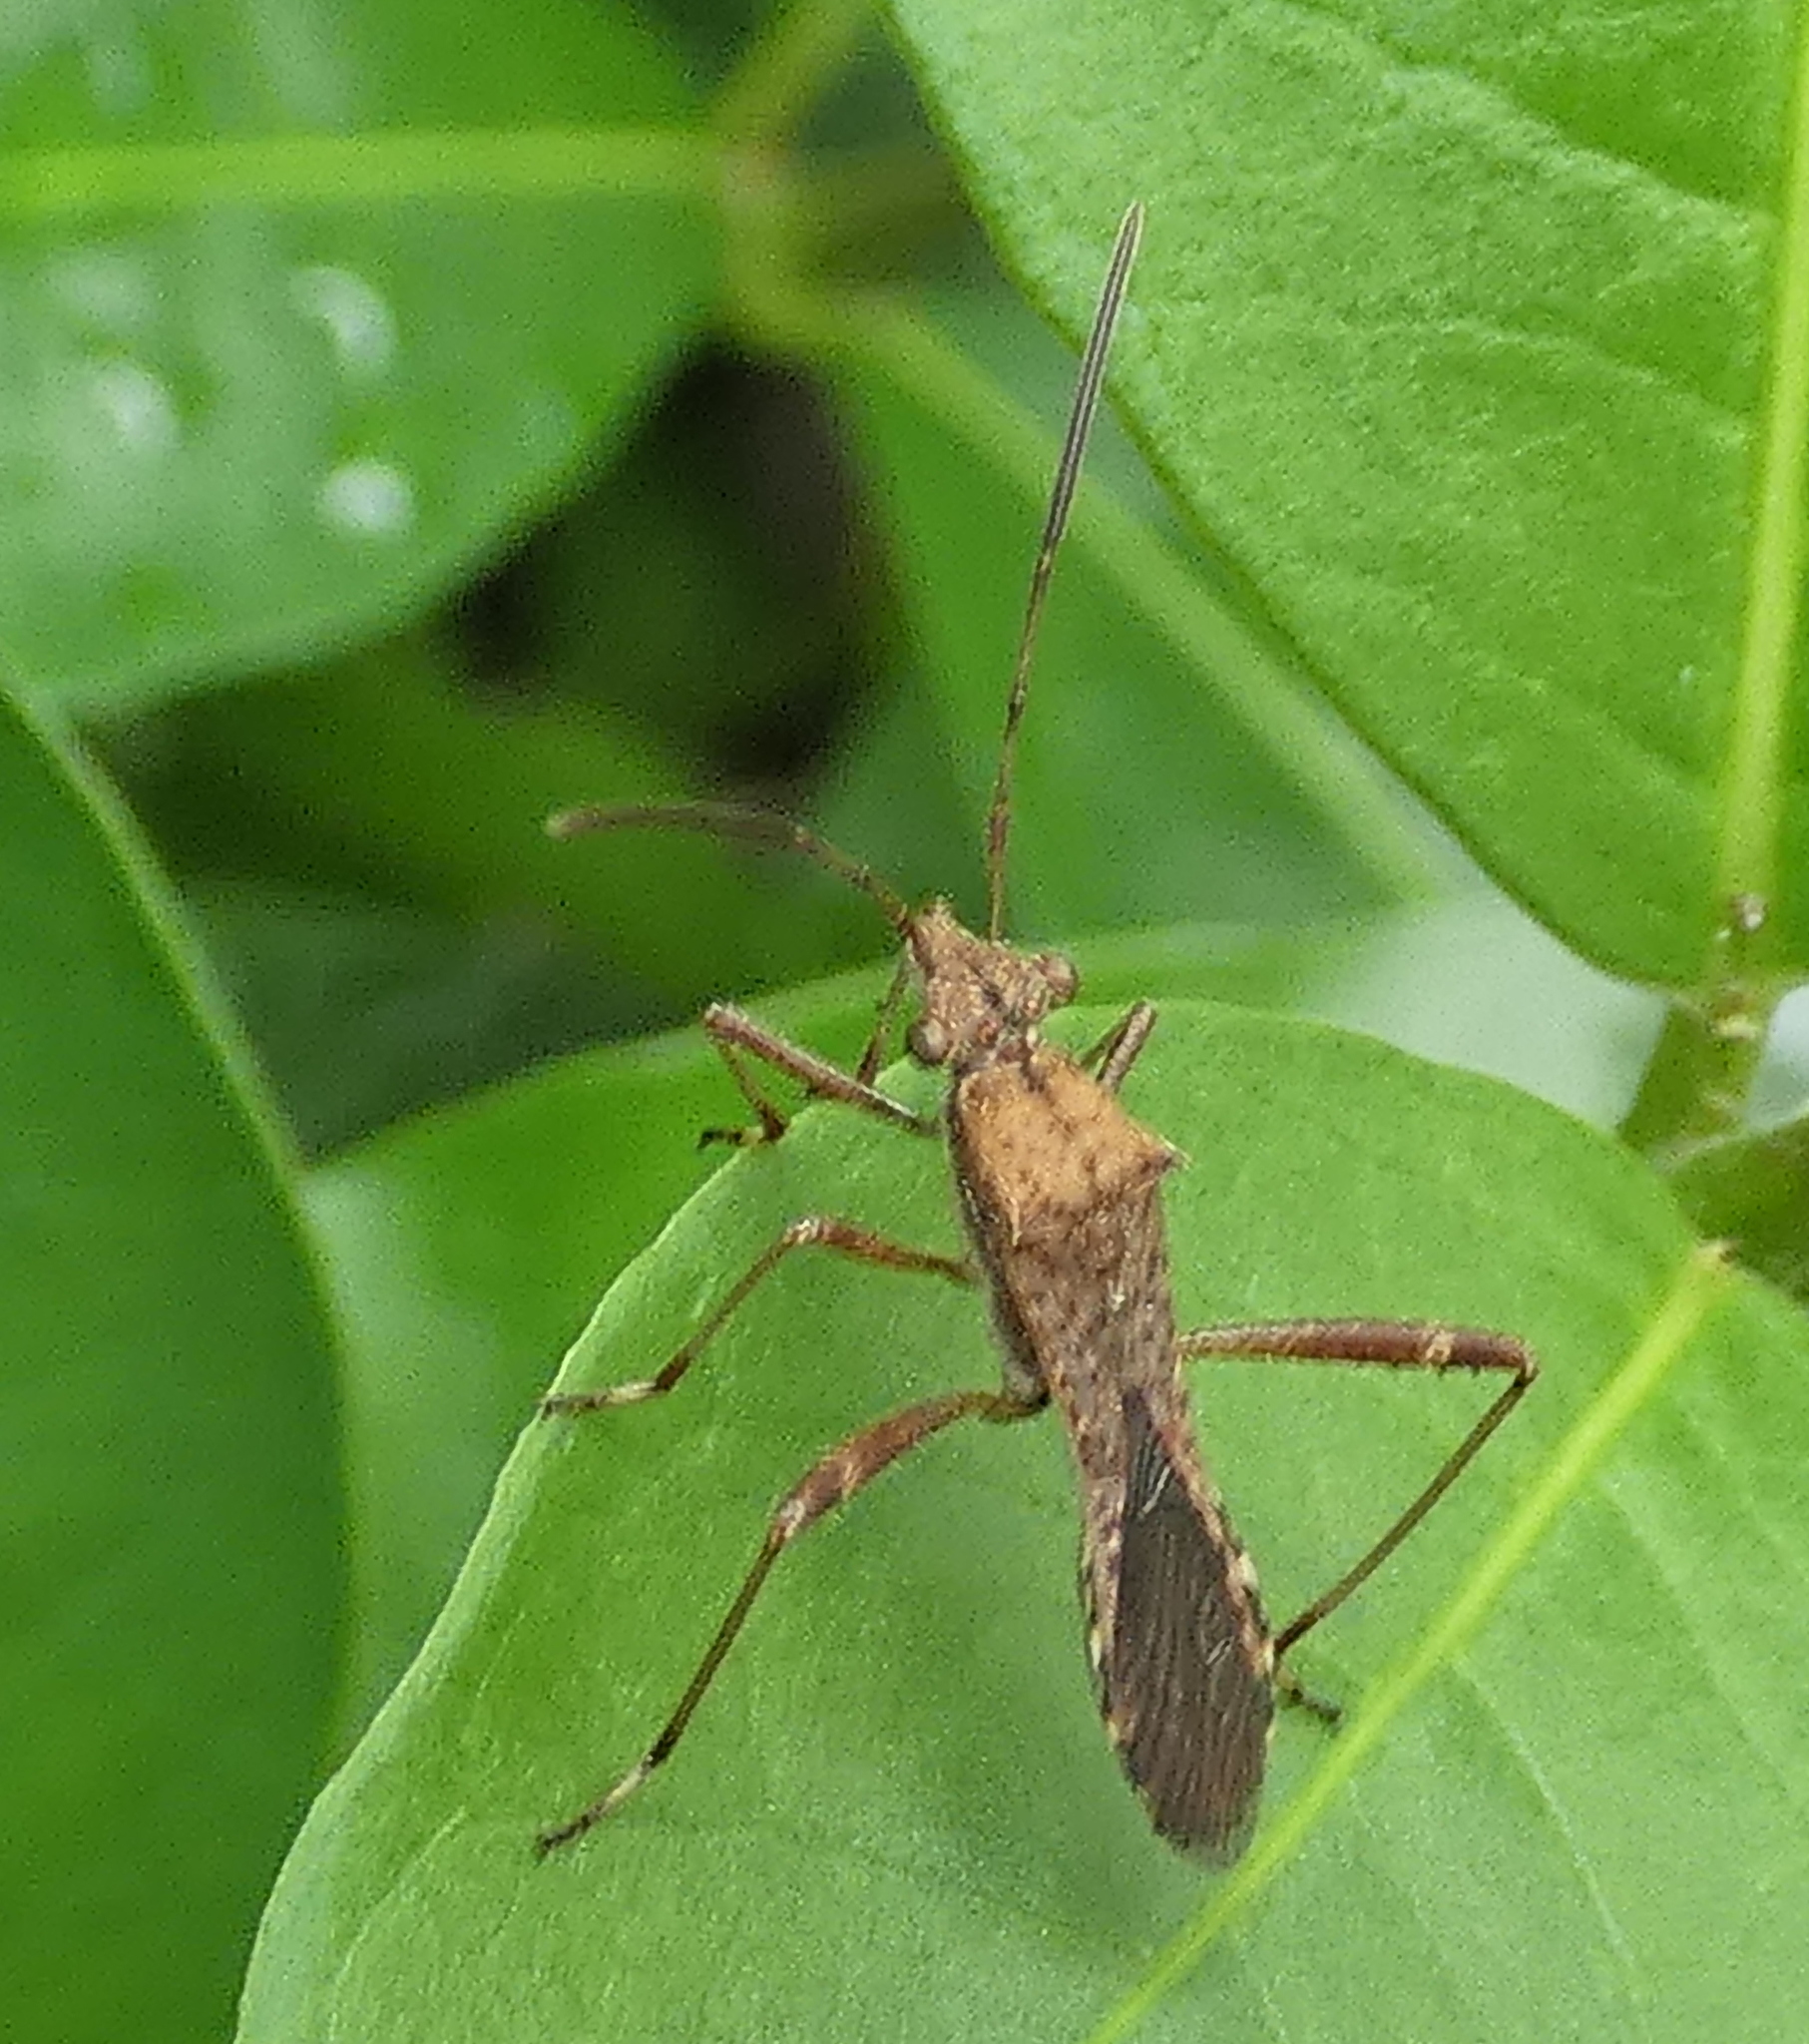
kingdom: Animalia
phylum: Arthropoda
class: Insecta
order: Hemiptera
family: Alydidae
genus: Neomegalotomus
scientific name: Neomegalotomus parvus
